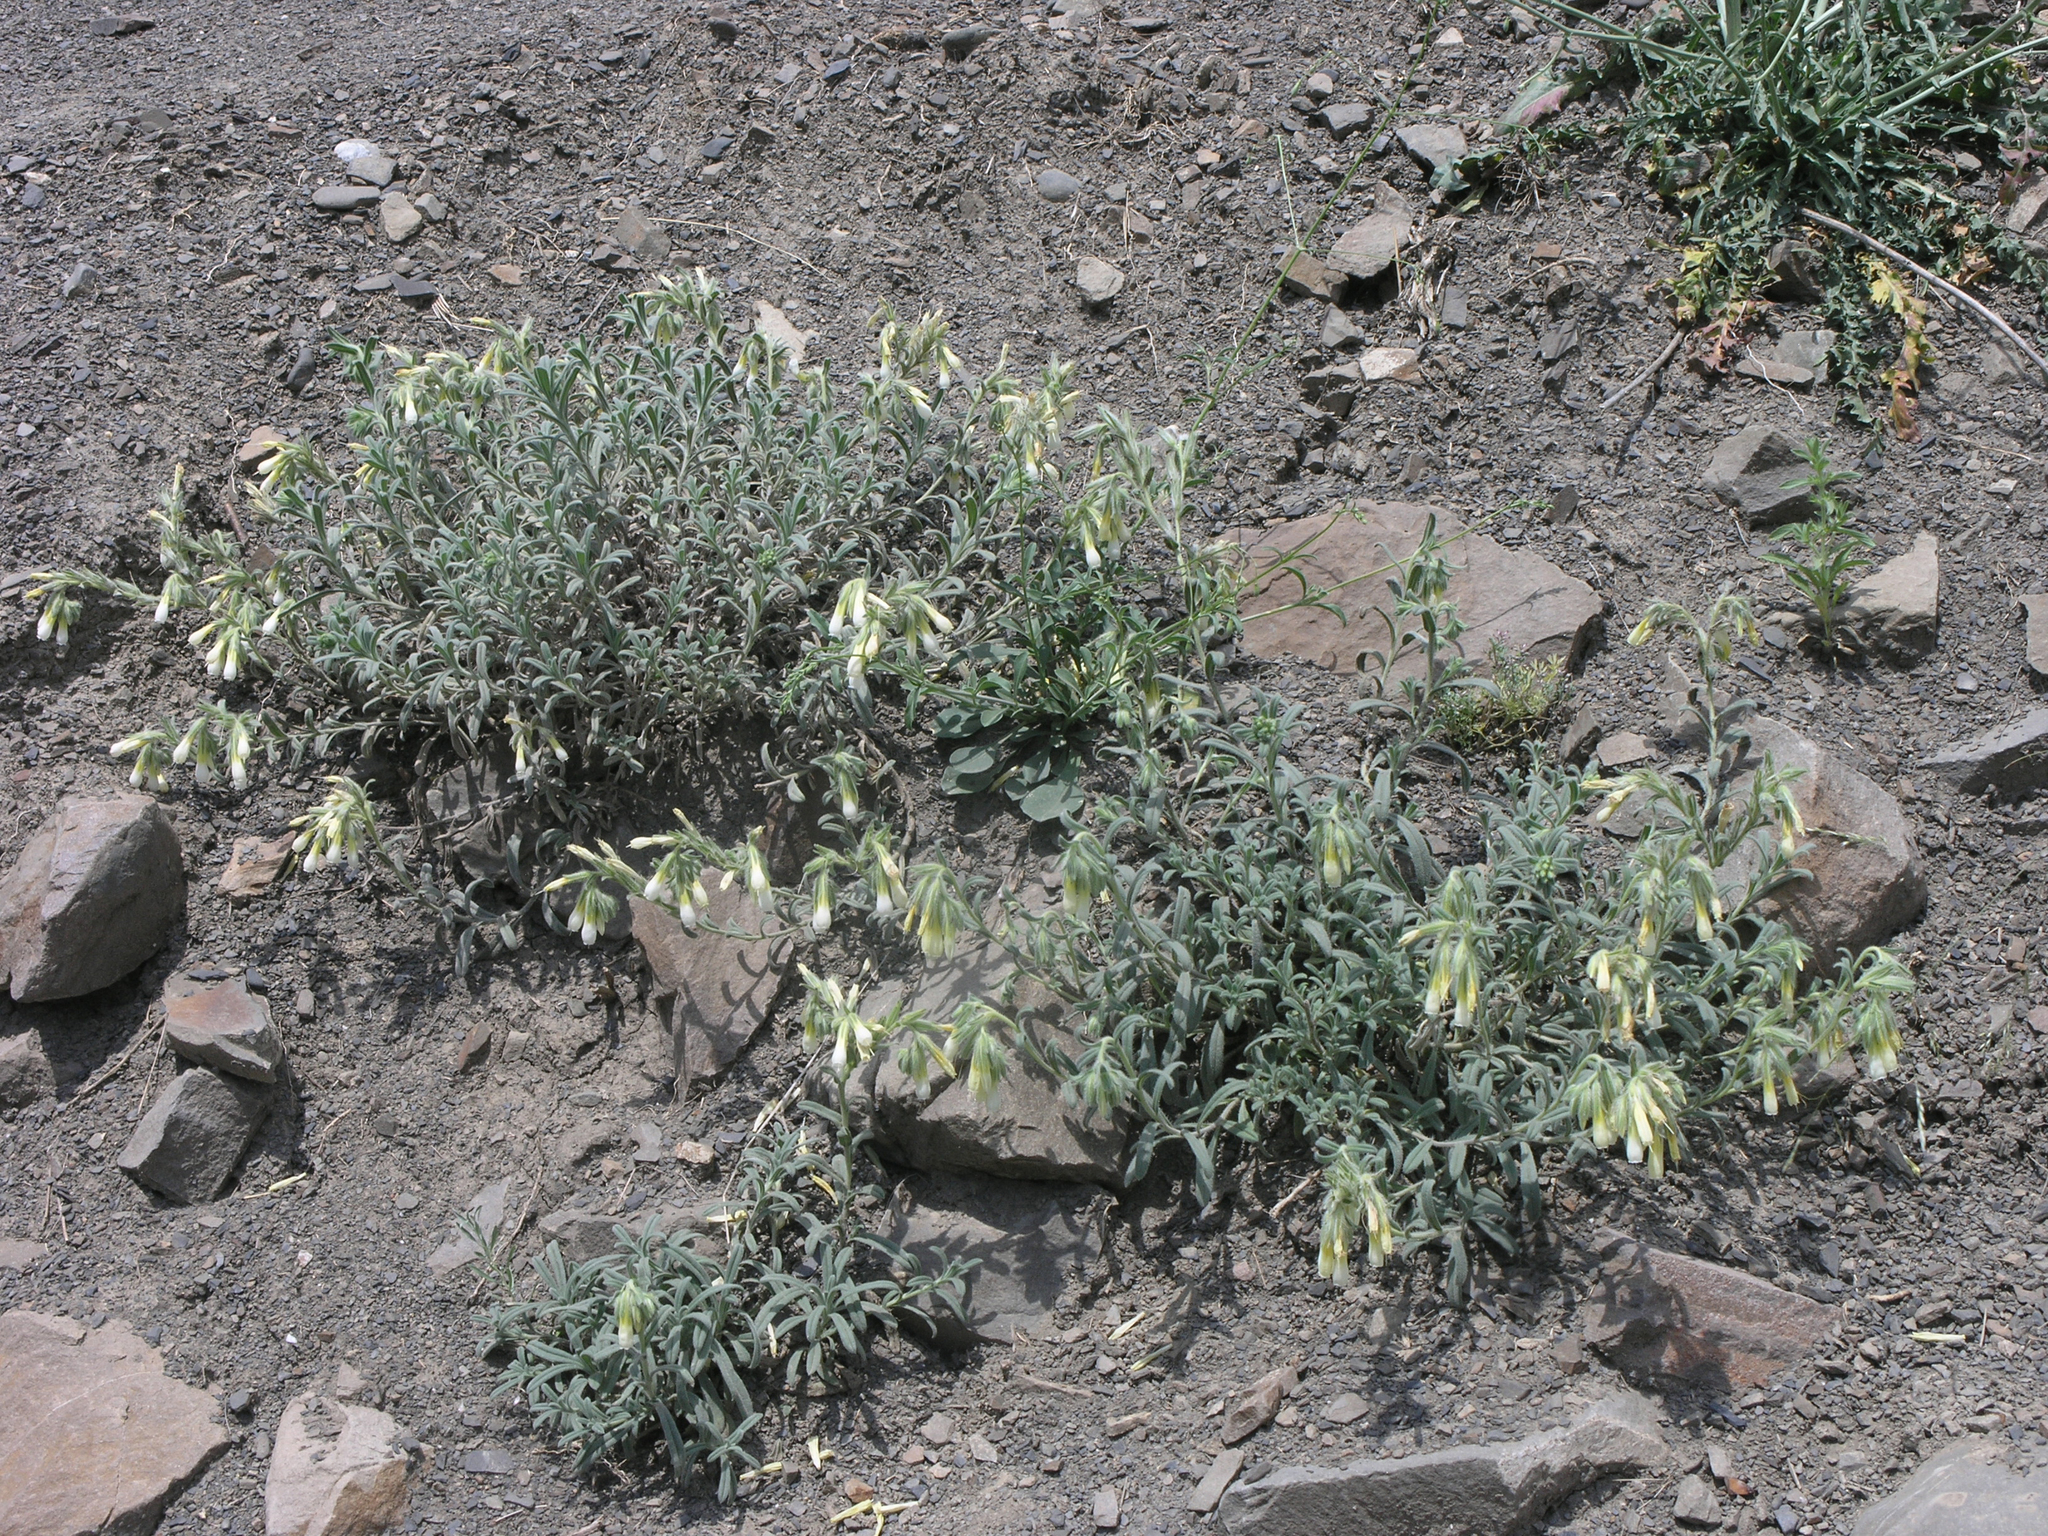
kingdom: Plantae
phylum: Tracheophyta
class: Magnoliopsida
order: Boraginales
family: Boraginaceae
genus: Onosma
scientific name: Onosma setosa
